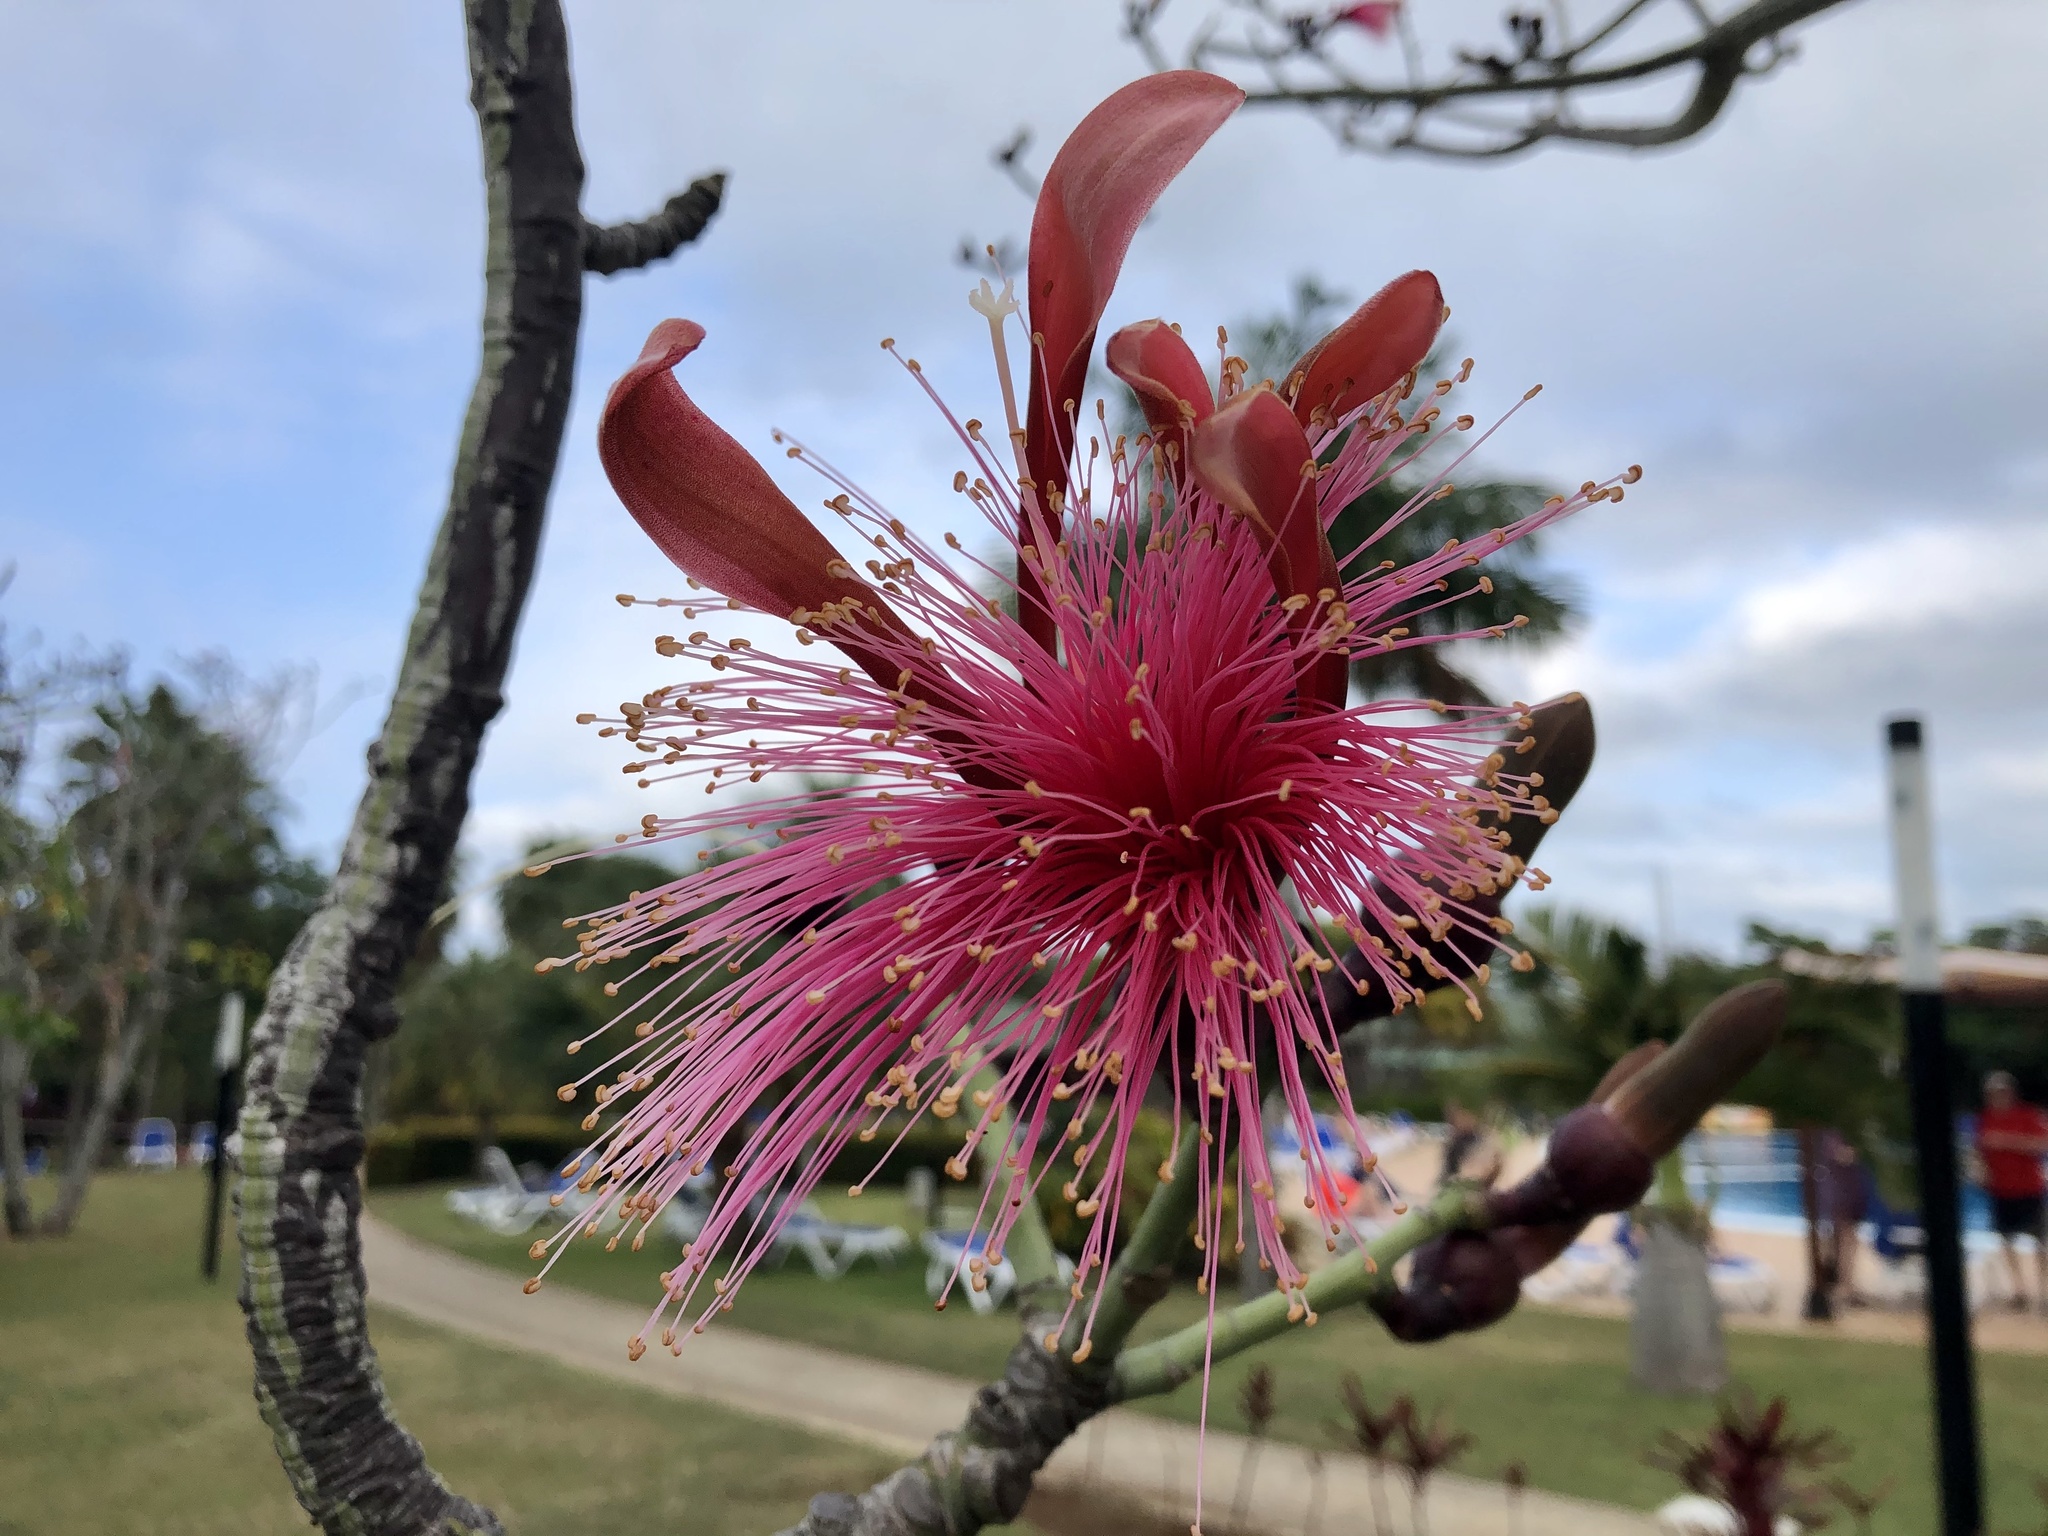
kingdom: Plantae
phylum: Tracheophyta
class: Magnoliopsida
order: Malvales
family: Malvaceae
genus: Pseudobombax
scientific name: Pseudobombax ellipticum
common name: Shaving-brush-tree
